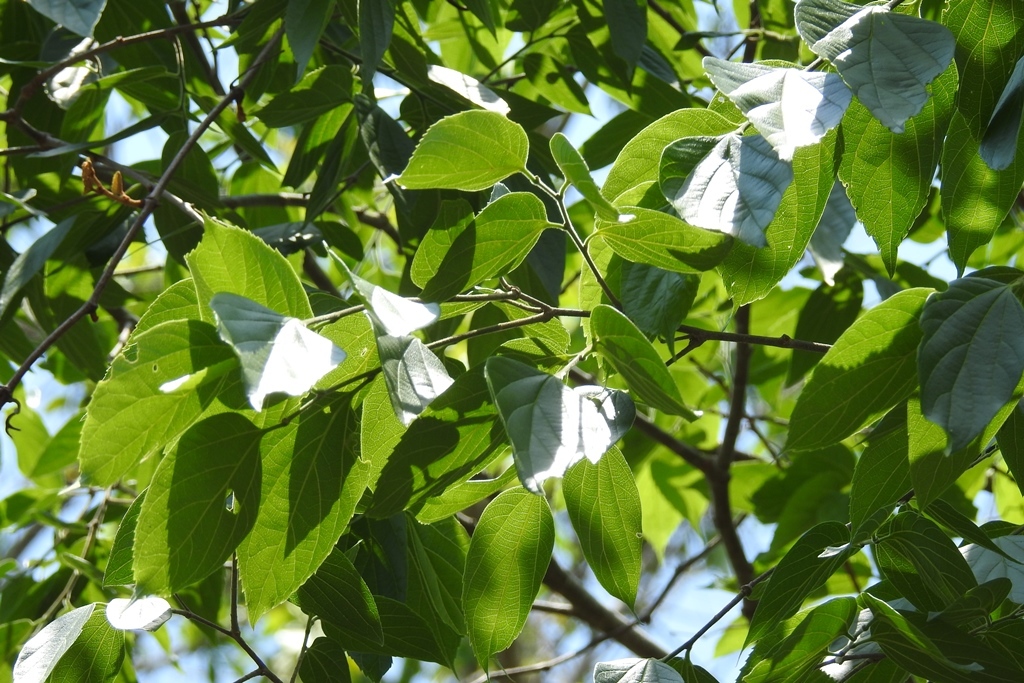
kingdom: Plantae
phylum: Tracheophyta
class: Magnoliopsida
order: Rosales
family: Cannabaceae
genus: Celtis
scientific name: Celtis caudata
